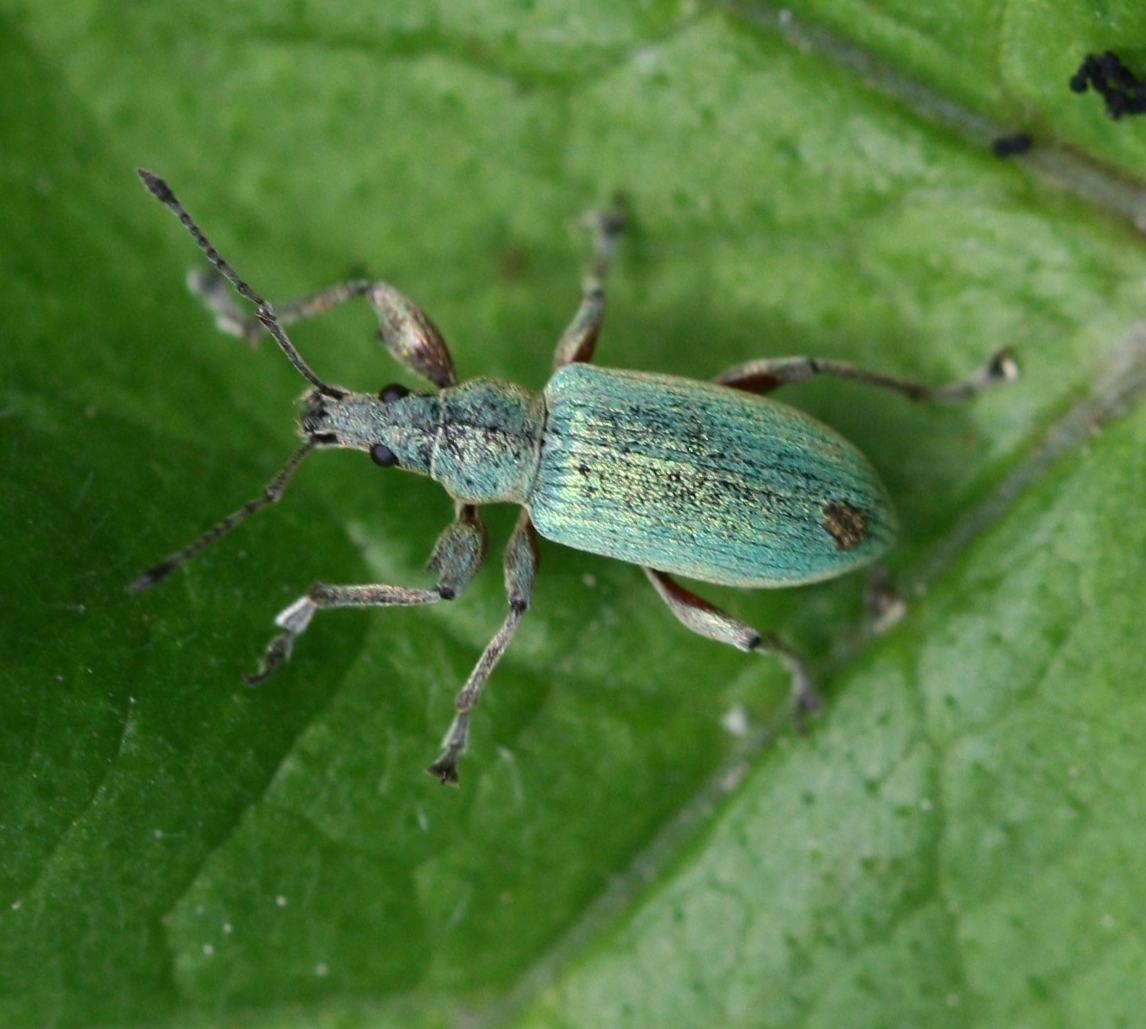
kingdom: Animalia
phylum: Arthropoda
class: Insecta
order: Coleoptera
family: Curculionidae
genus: Phyllobius
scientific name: Phyllobius pomaceus
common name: Green nettle weevil
